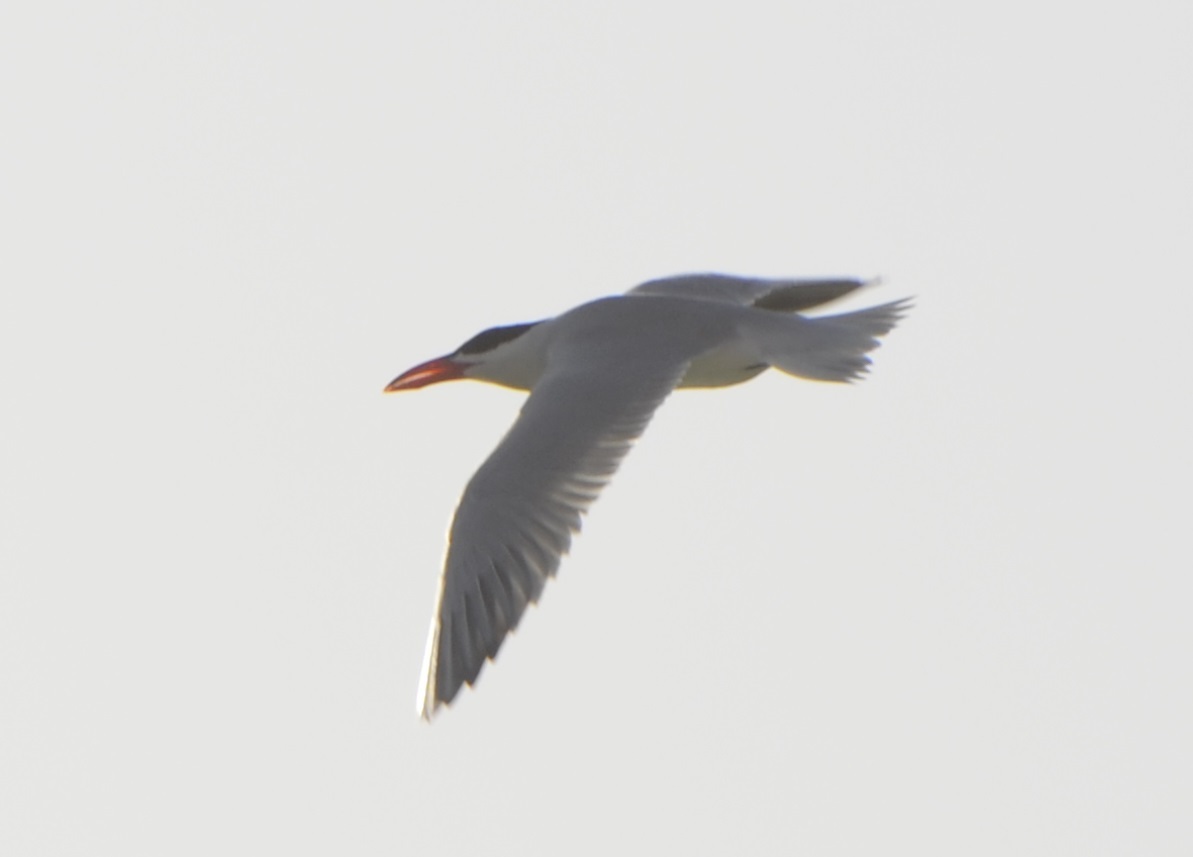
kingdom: Animalia
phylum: Chordata
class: Aves
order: Charadriiformes
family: Laridae
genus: Hydroprogne
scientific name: Hydroprogne caspia
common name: Caspian tern
